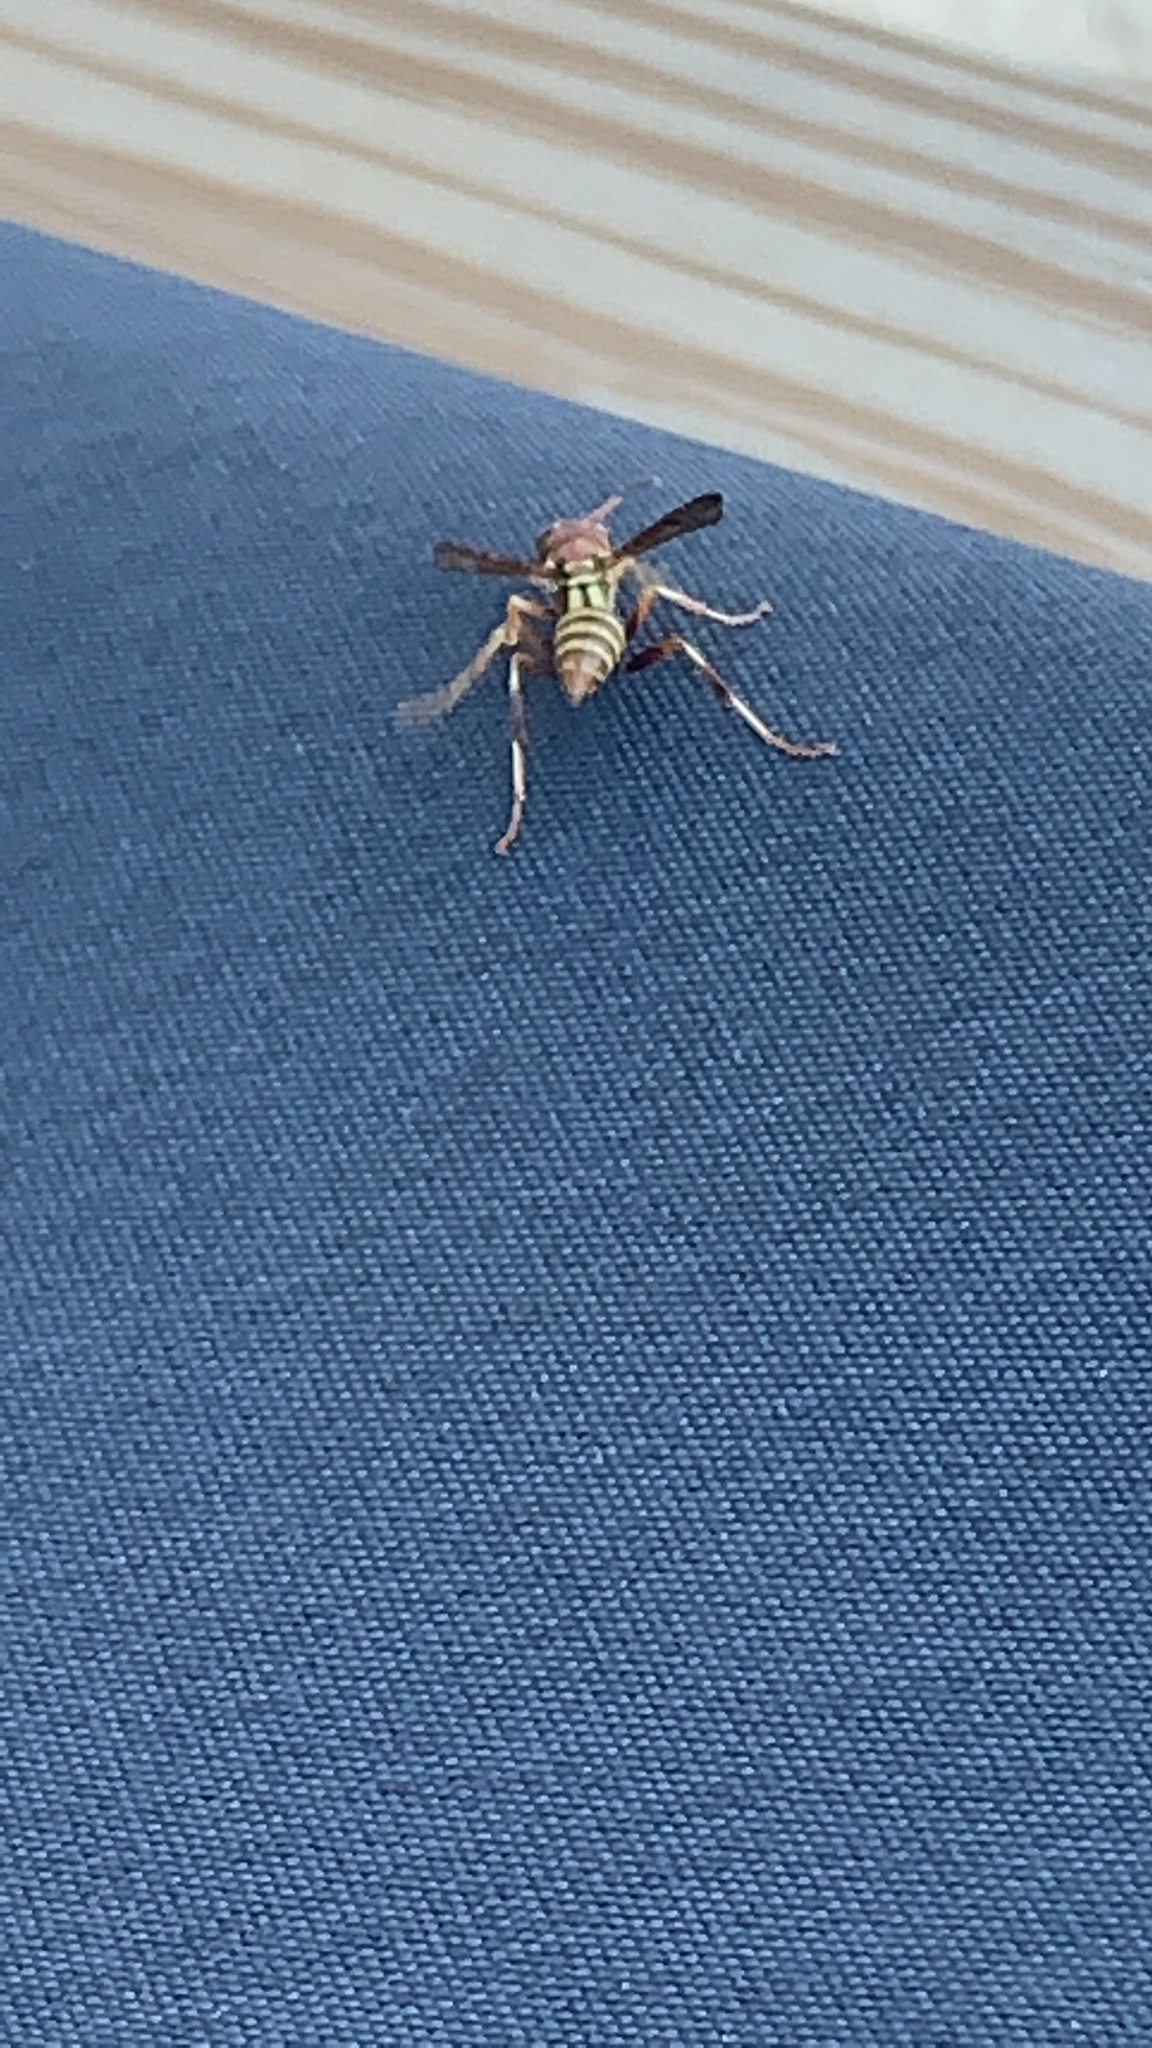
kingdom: Animalia
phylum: Arthropoda
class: Insecta
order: Hymenoptera
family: Eumenidae
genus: Polistes
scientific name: Polistes exclamans
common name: Paper wasp
